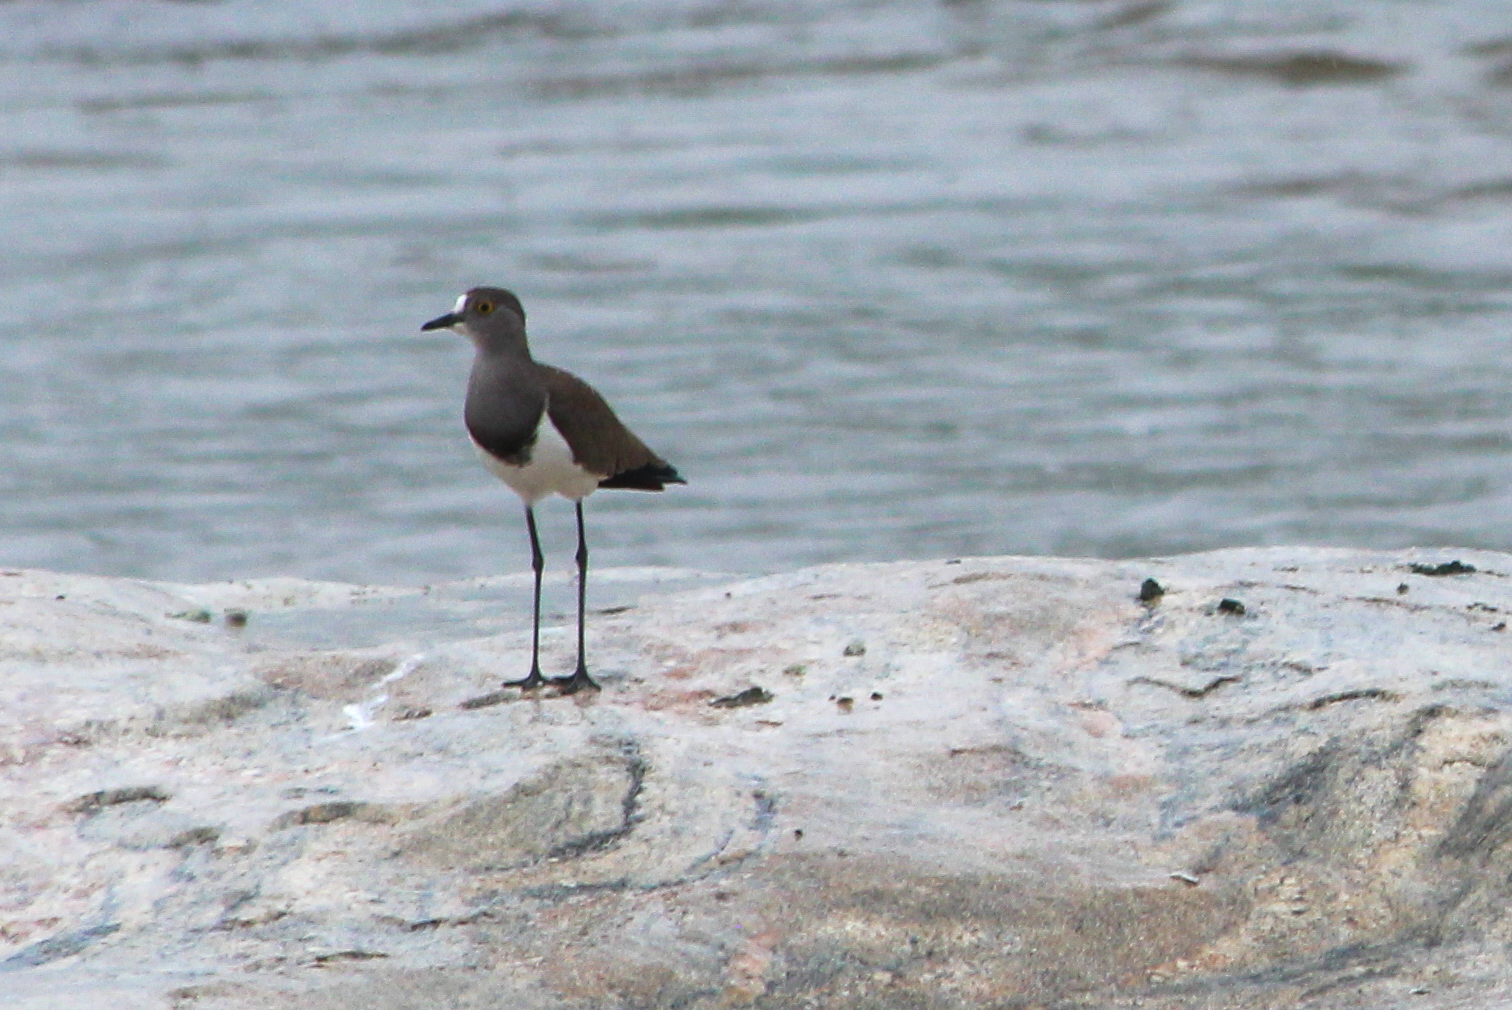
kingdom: Animalia
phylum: Chordata
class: Aves
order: Charadriiformes
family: Charadriidae
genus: Vanellus
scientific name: Vanellus lugubris
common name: Senegal lapwing
